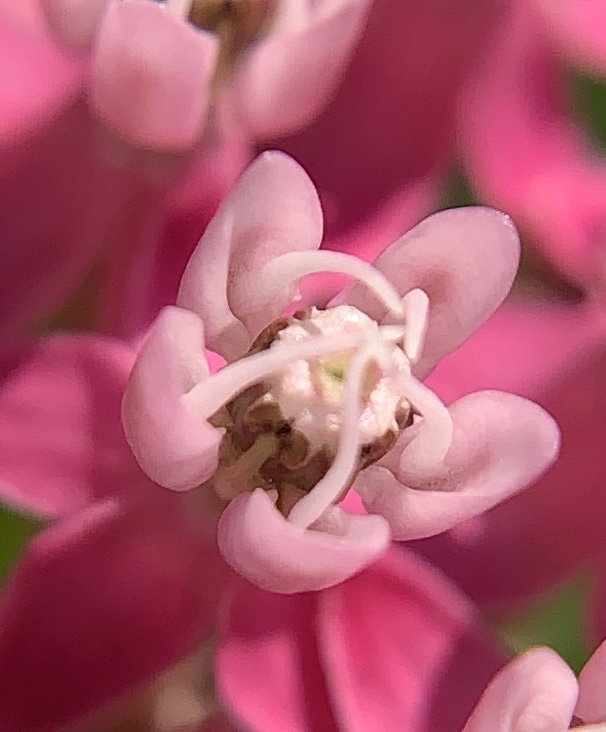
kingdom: Plantae
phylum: Tracheophyta
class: Magnoliopsida
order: Gentianales
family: Apocynaceae
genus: Asclepias
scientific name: Asclepias incarnata
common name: Swamp milkweed
